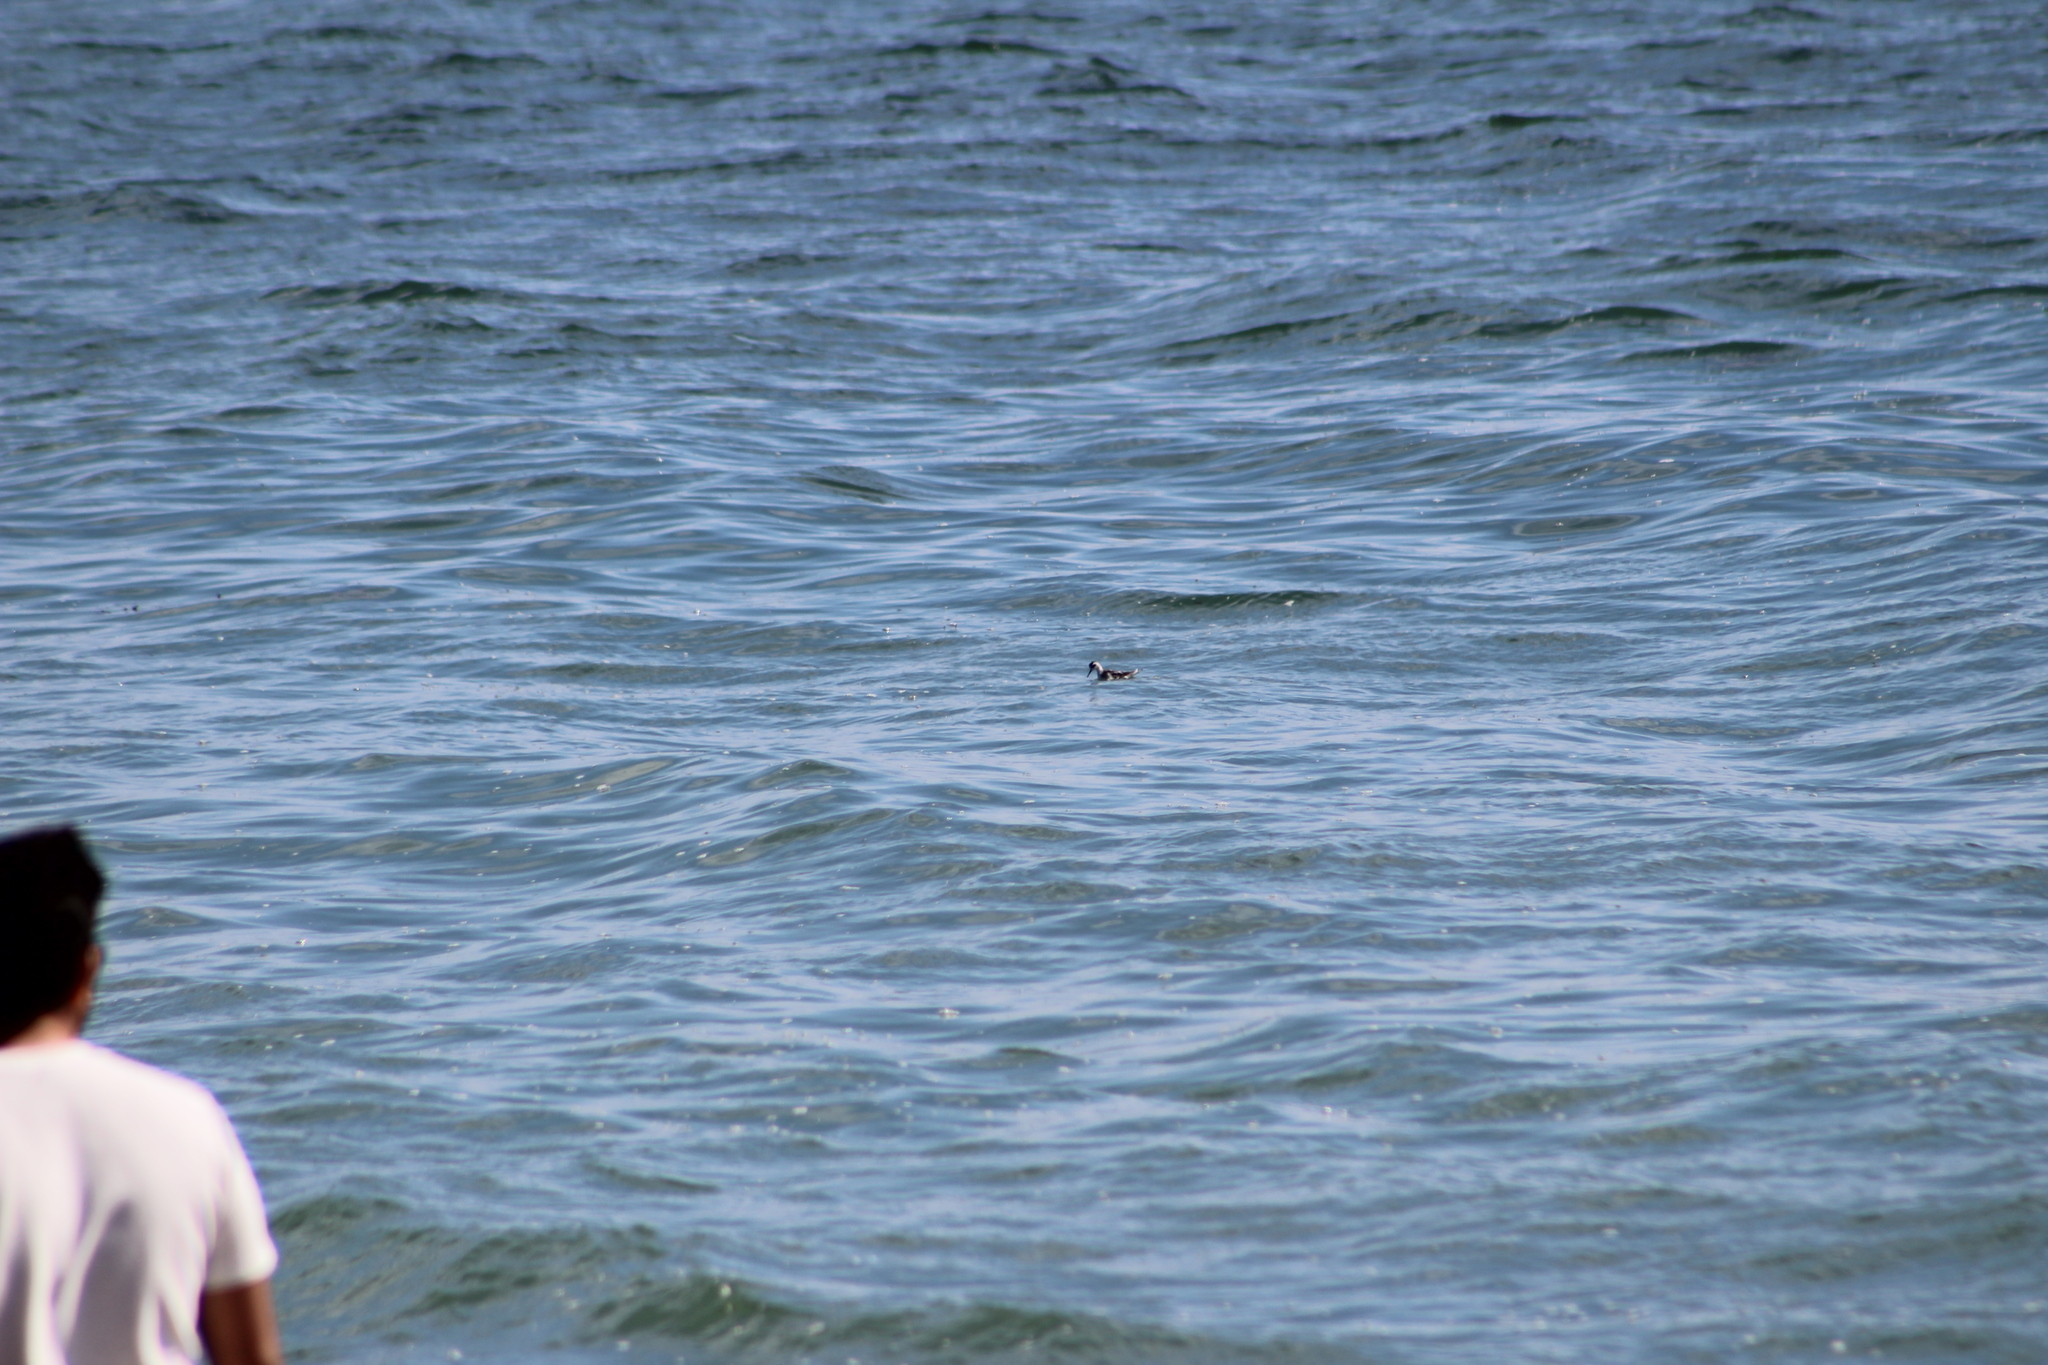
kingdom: Animalia
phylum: Chordata
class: Aves
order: Charadriiformes
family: Scolopacidae
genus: Phalaropus
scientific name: Phalaropus lobatus
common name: Red-necked phalarope
